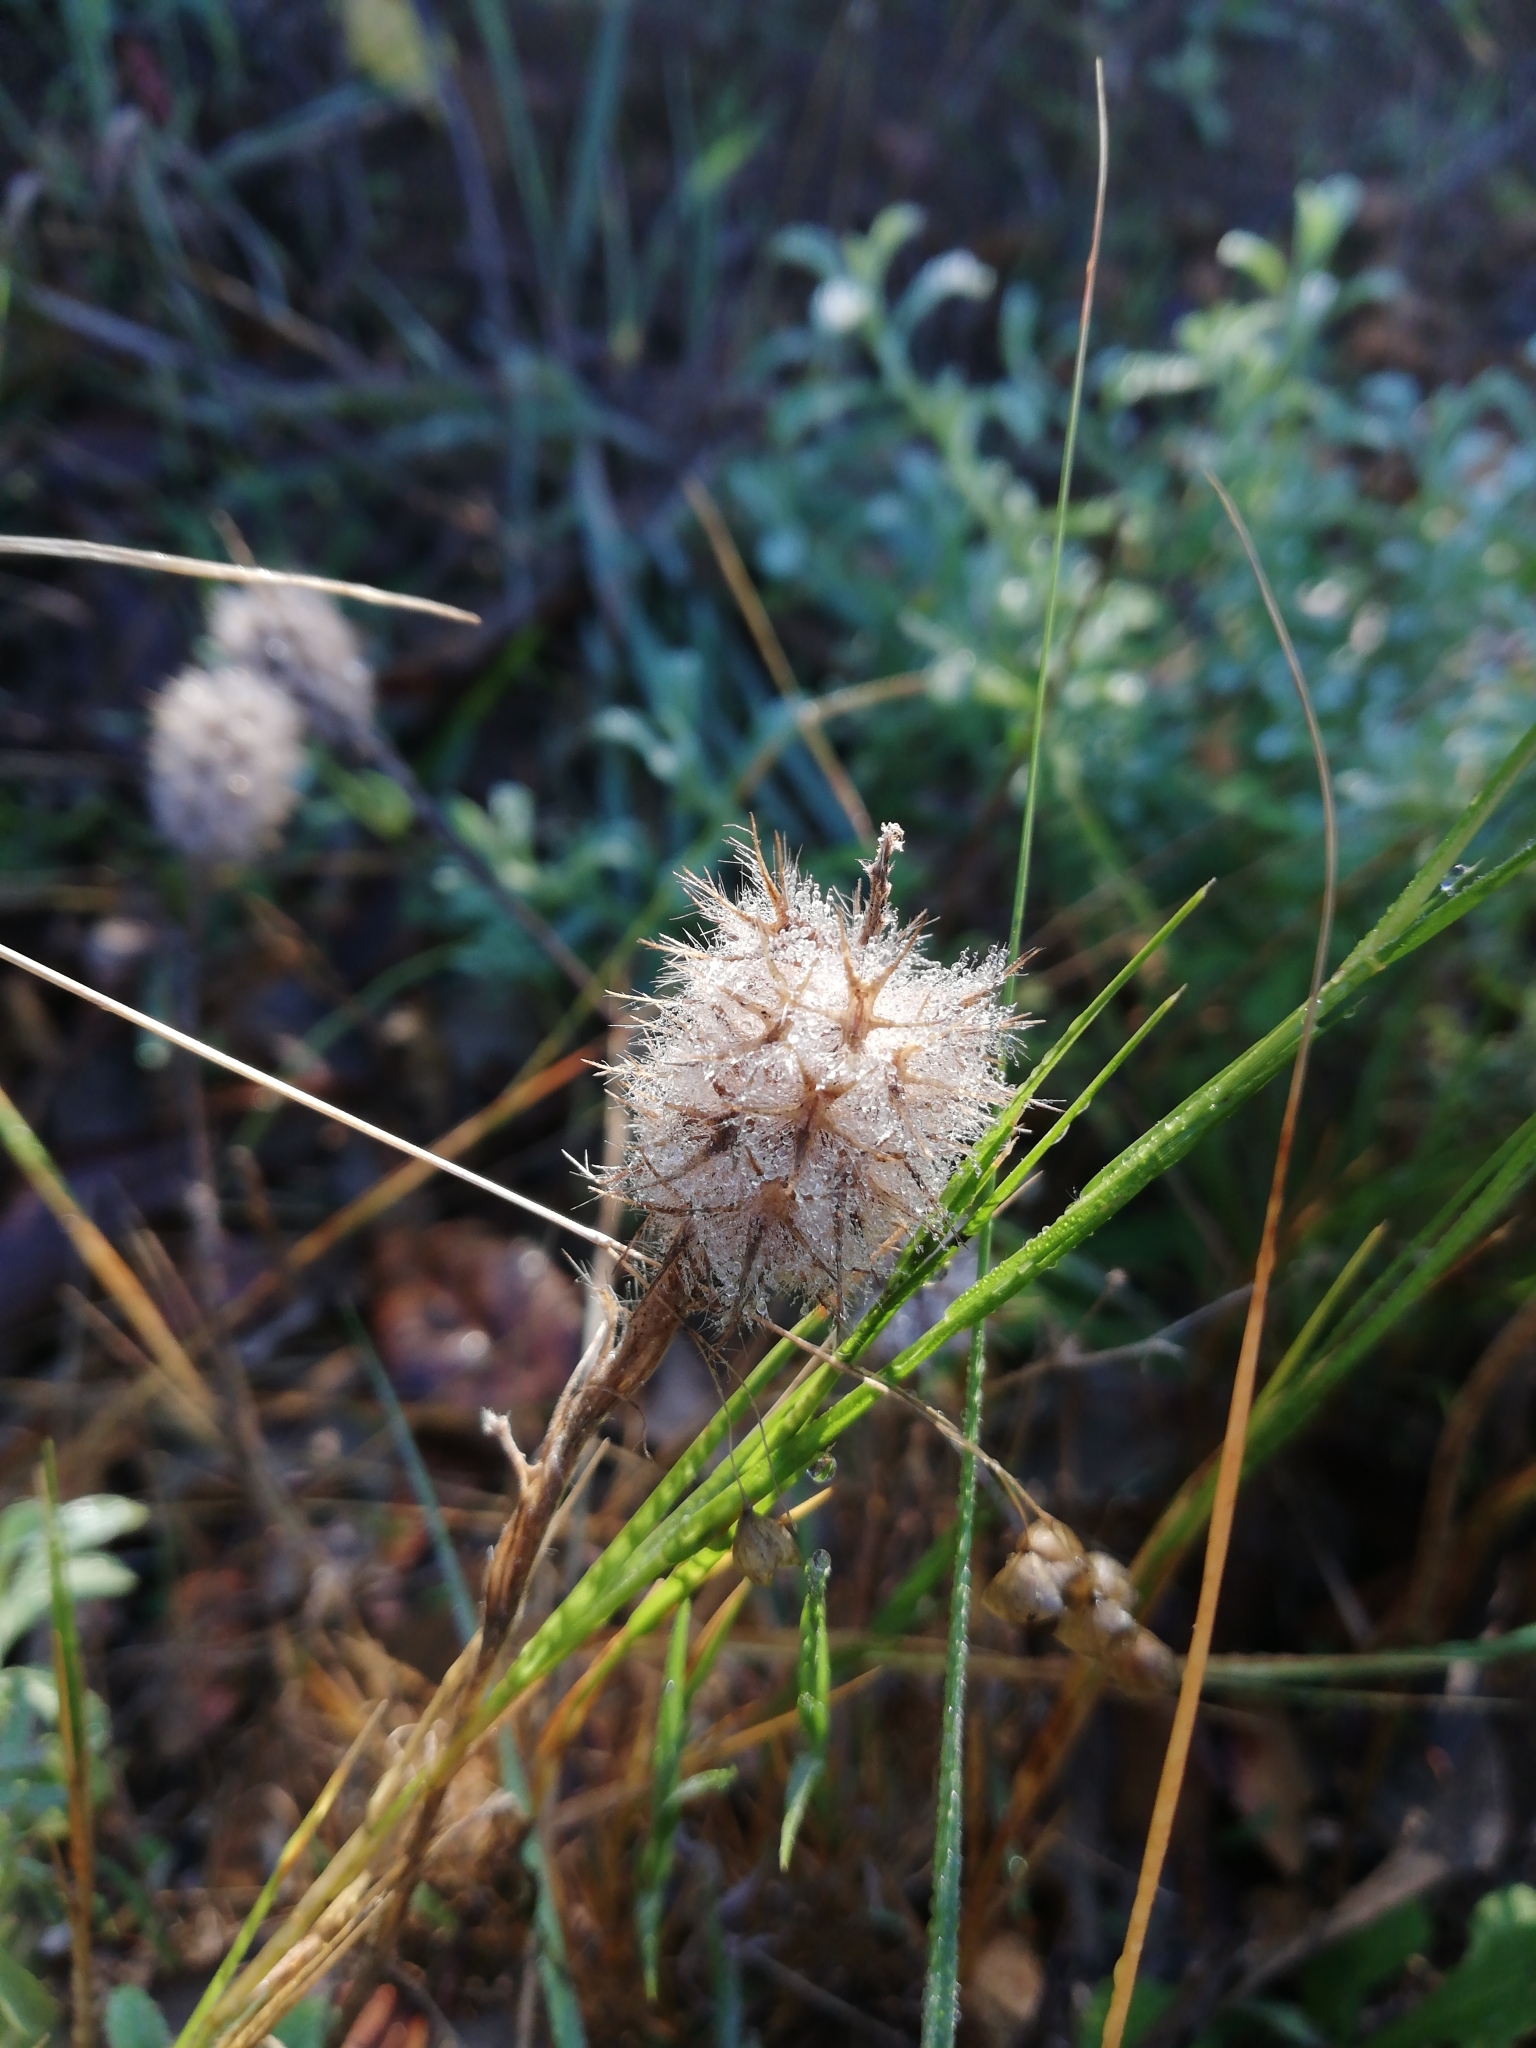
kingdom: Plantae
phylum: Tracheophyta
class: Magnoliopsida
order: Fabales
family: Fabaceae
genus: Trifolium
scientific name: Trifolium angustifolium
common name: Narrow clover
